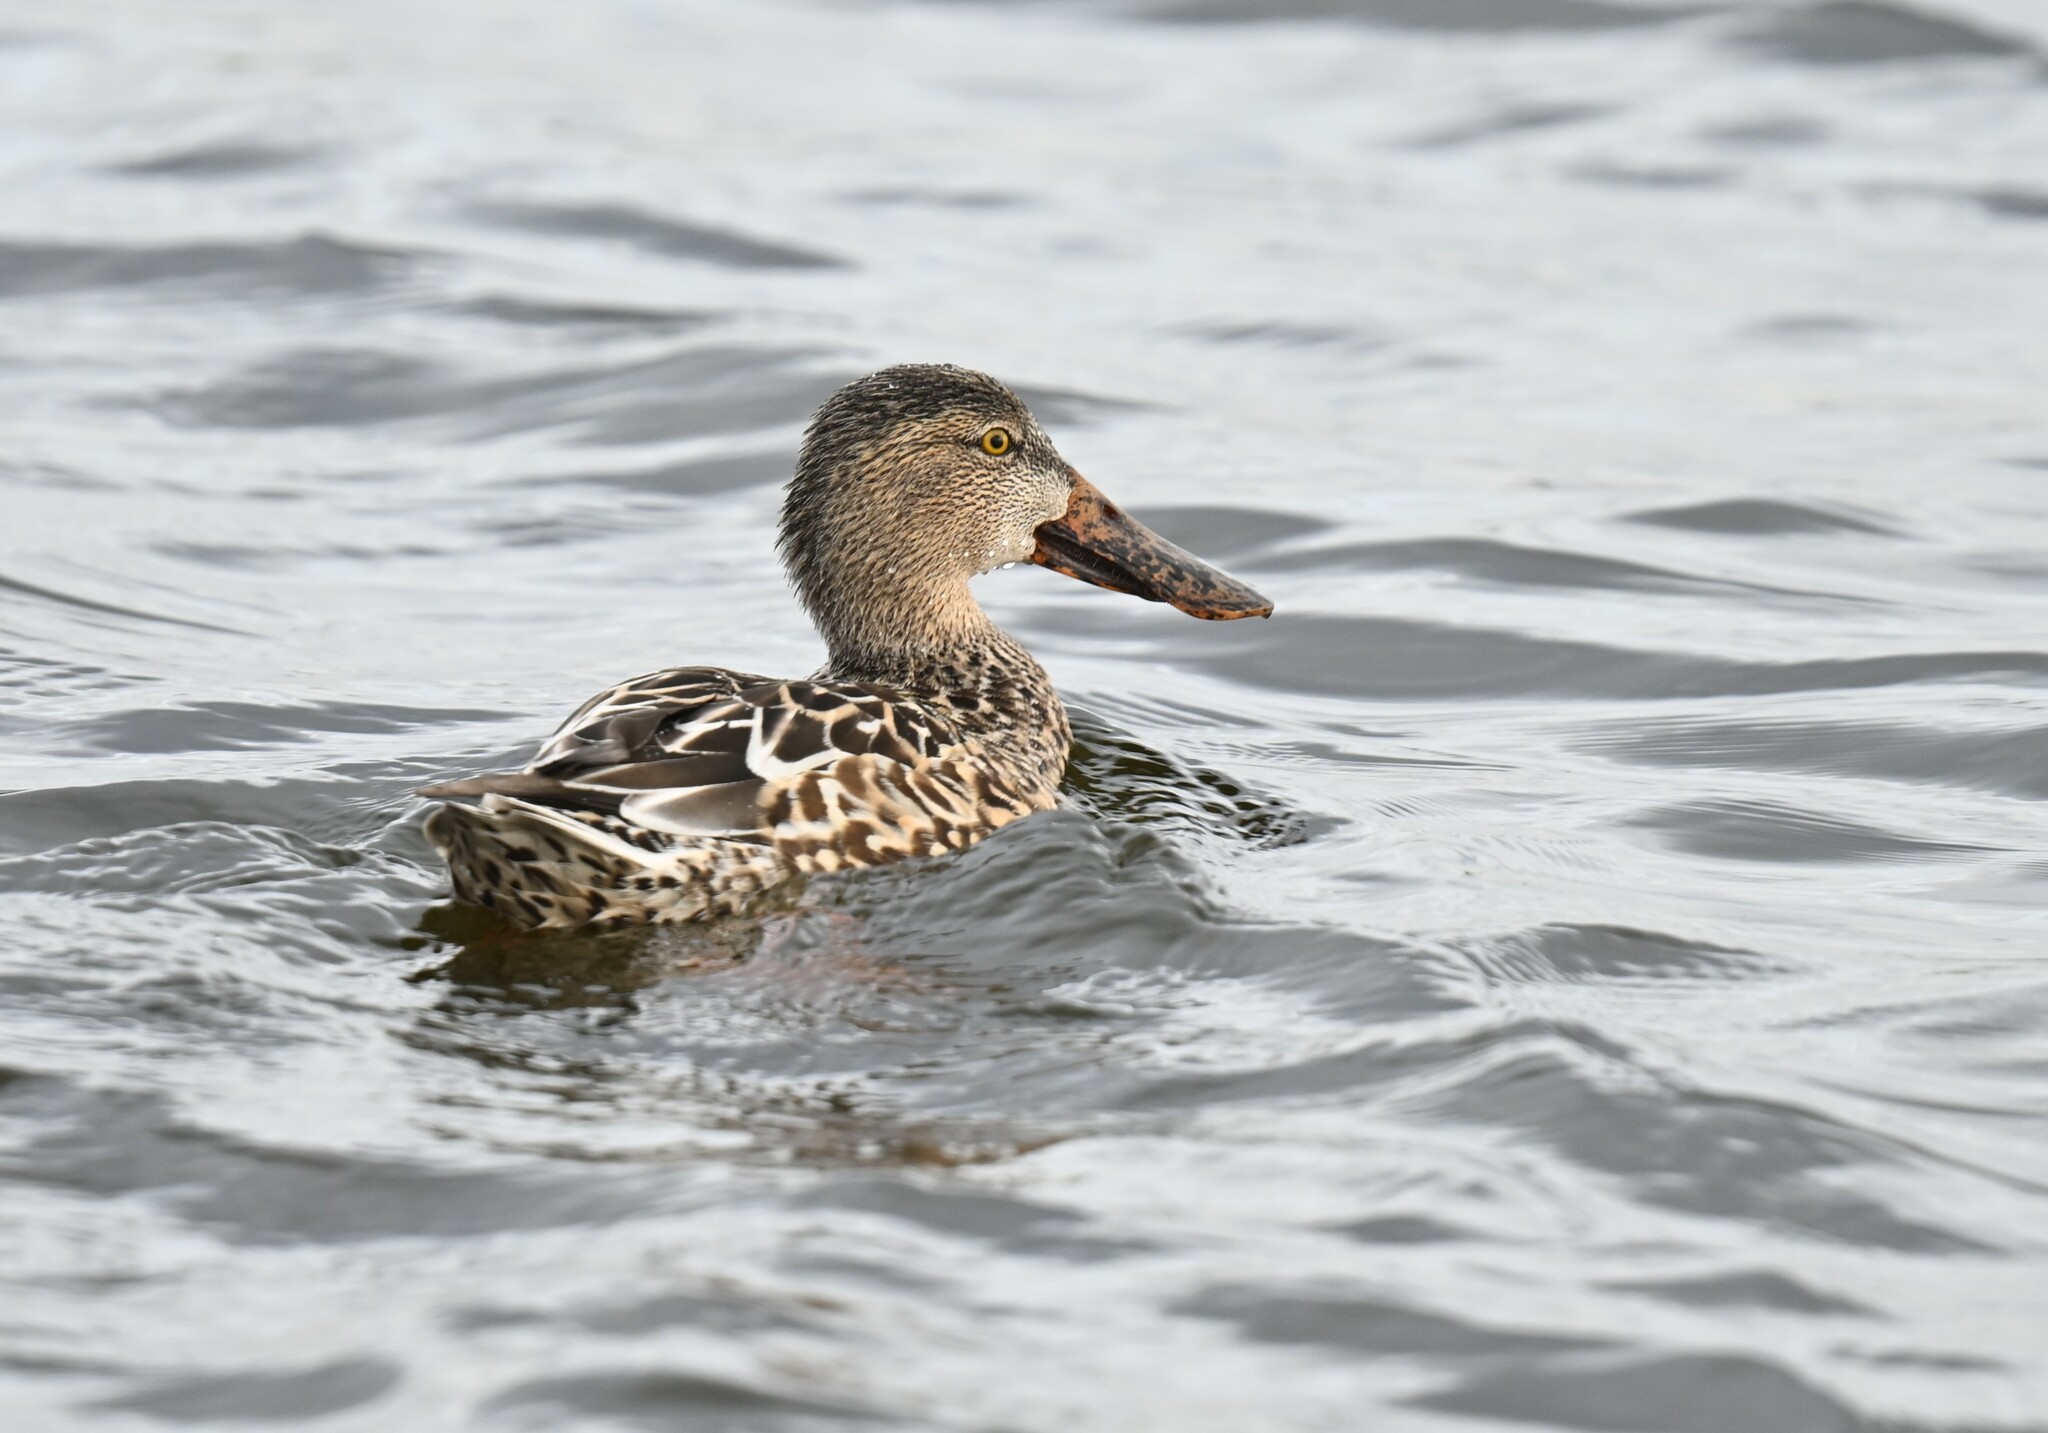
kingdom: Animalia
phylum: Chordata
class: Aves
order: Anseriformes
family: Anatidae
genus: Spatula
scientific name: Spatula clypeata
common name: Northern shoveler
